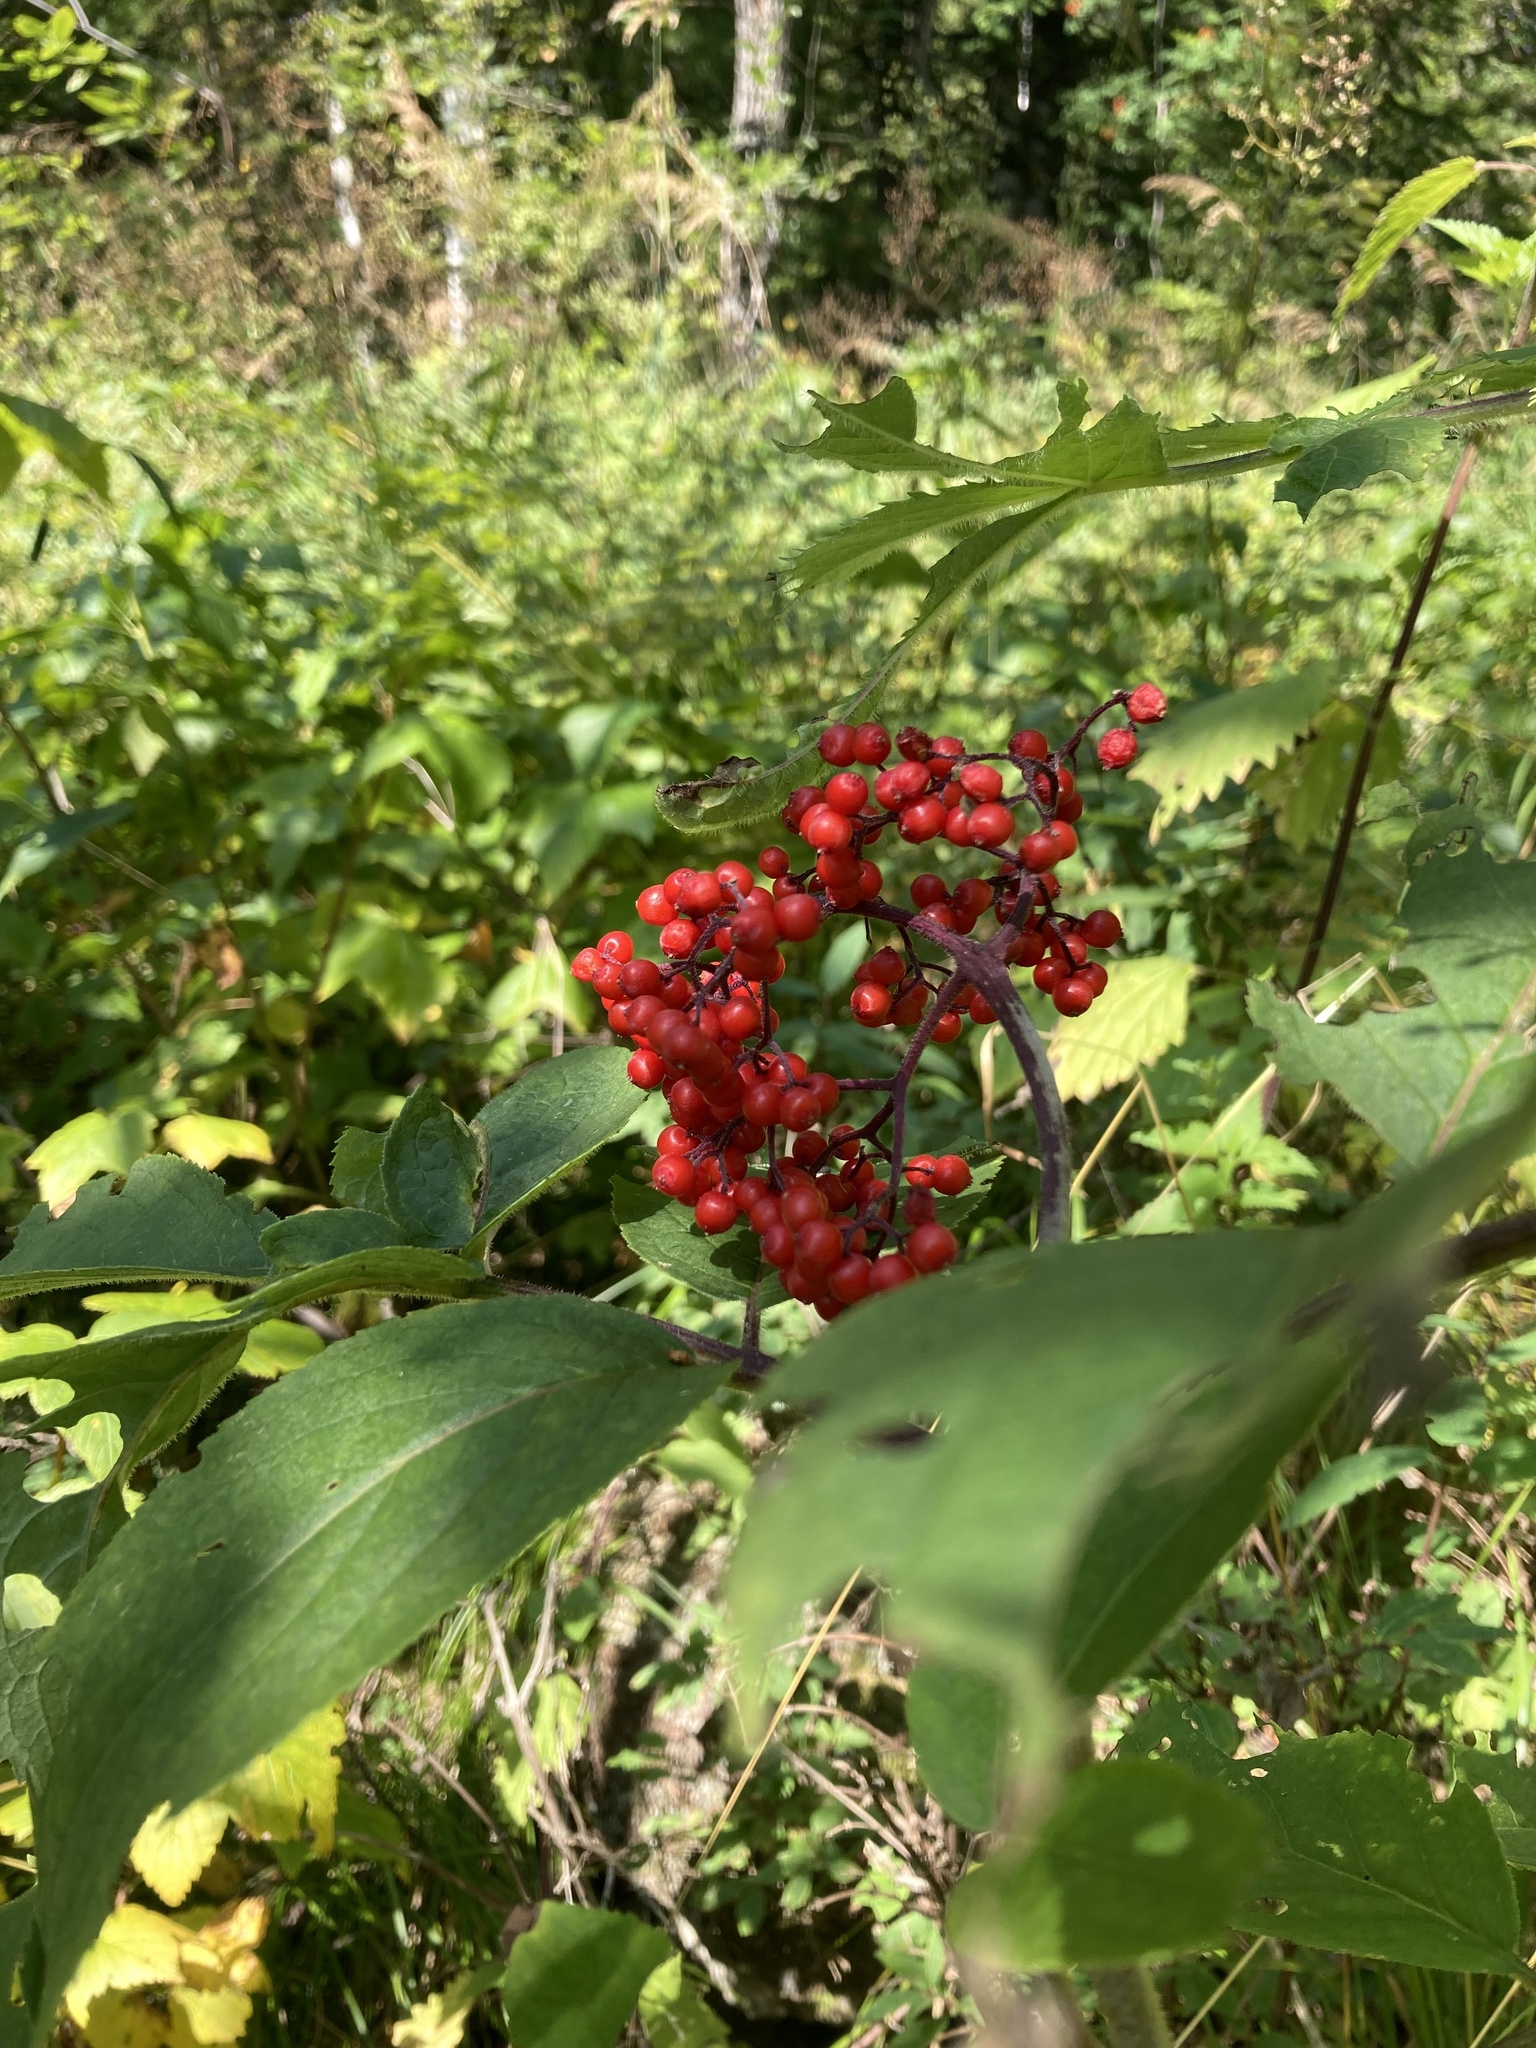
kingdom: Plantae
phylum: Tracheophyta
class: Magnoliopsida
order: Dipsacales
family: Viburnaceae
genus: Sambucus
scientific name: Sambucus sibirica
